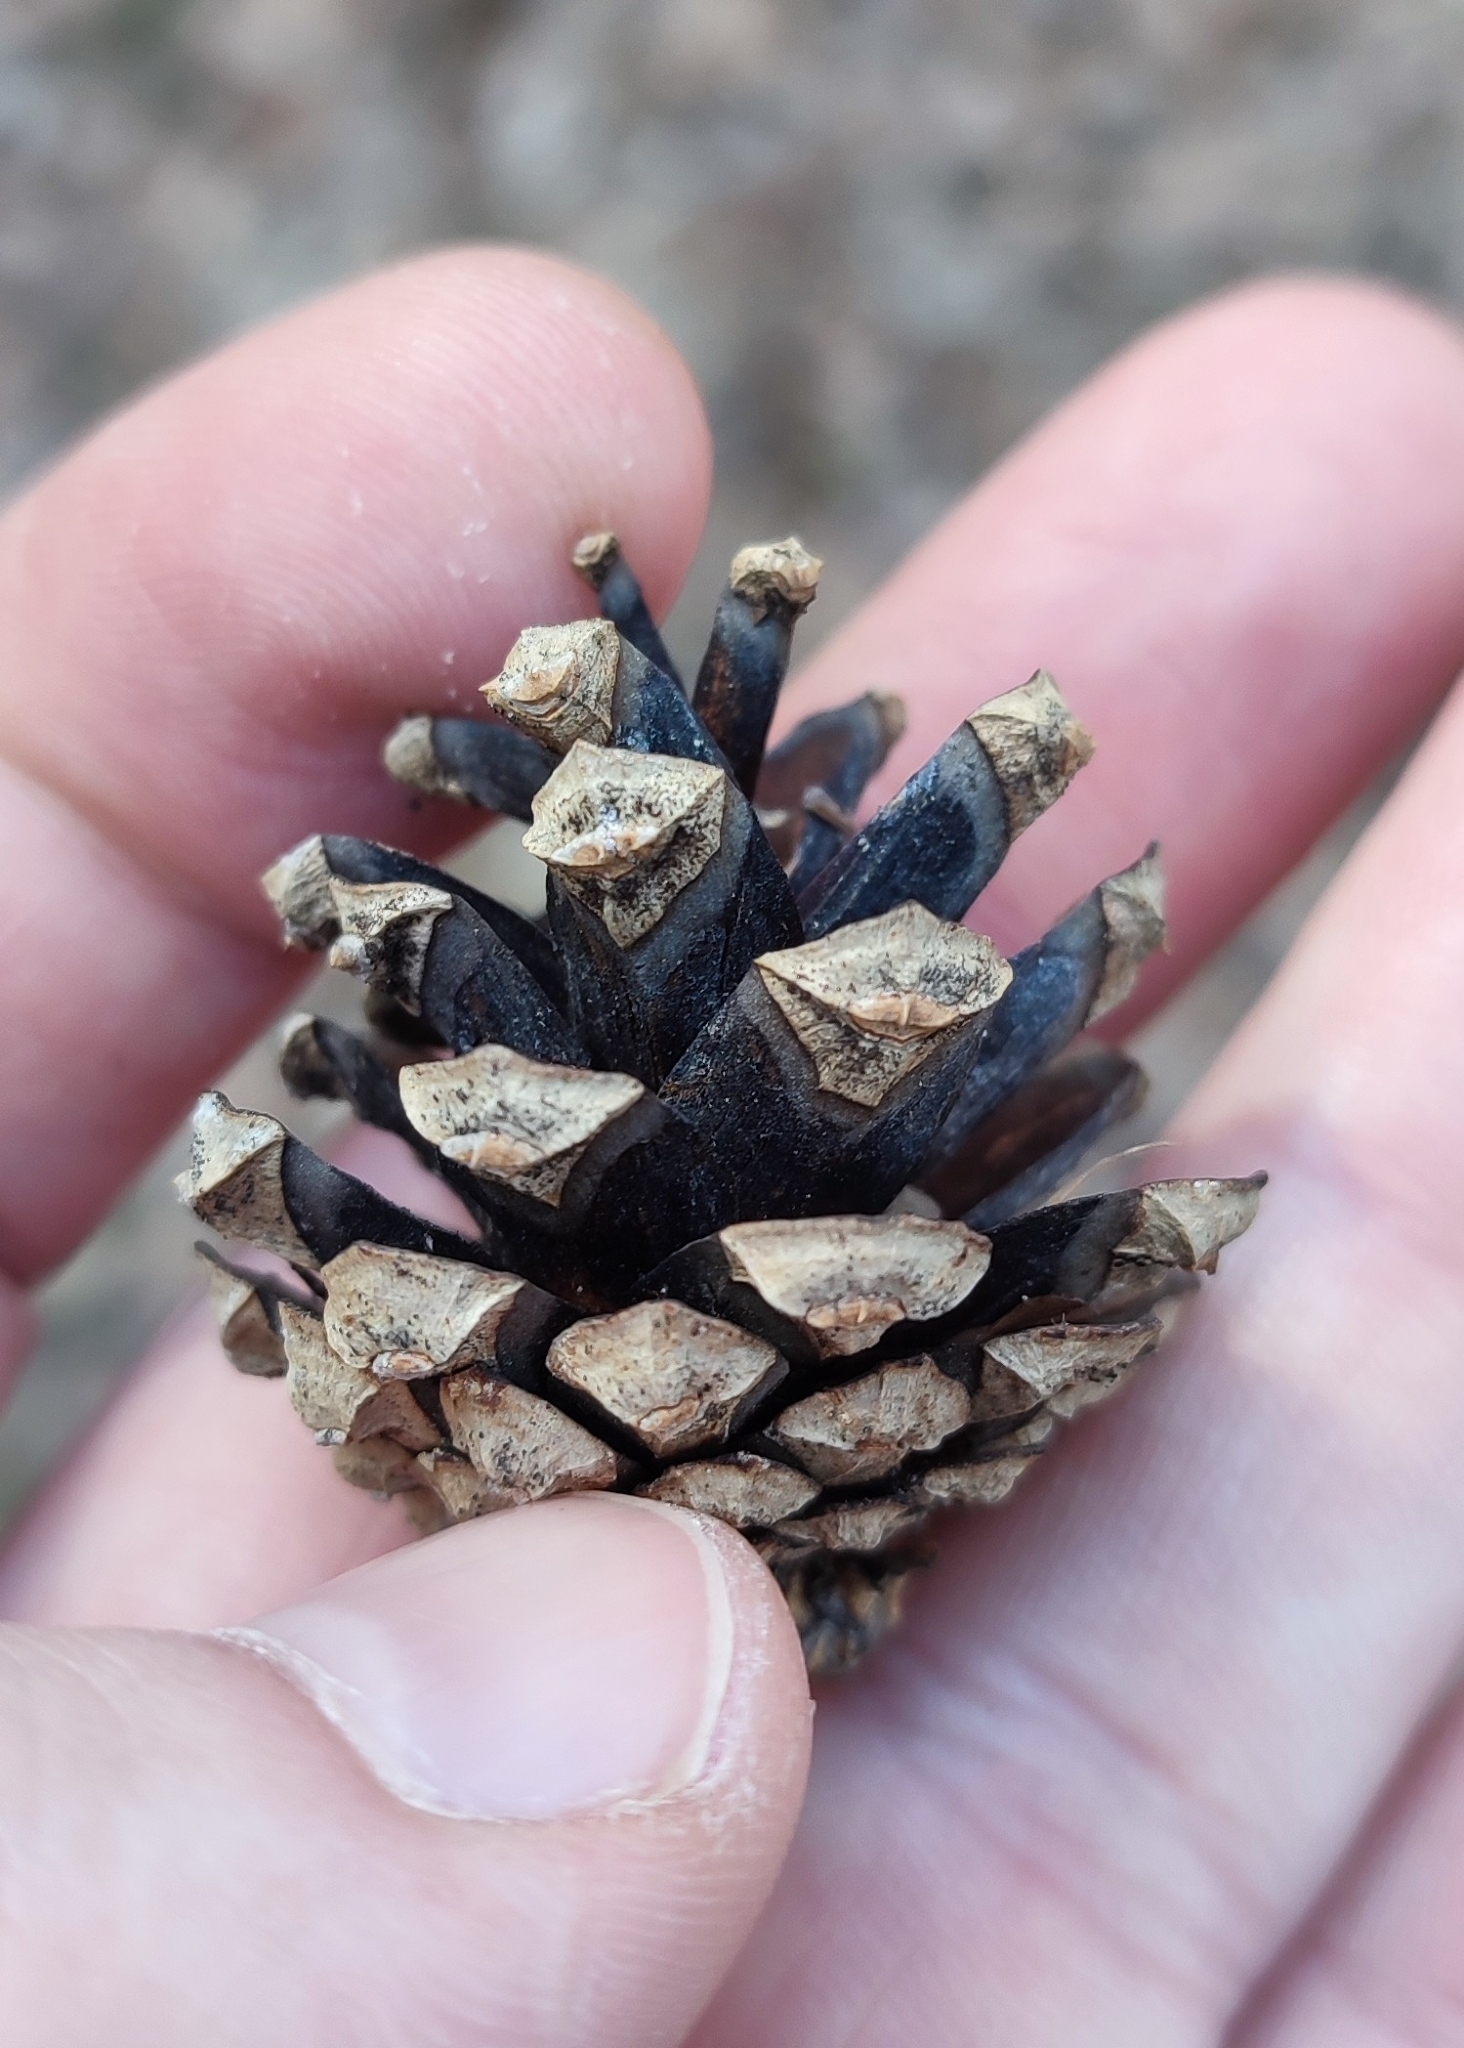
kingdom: Plantae
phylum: Tracheophyta
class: Pinopsida
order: Pinales
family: Pinaceae
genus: Pinus
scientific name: Pinus sylvestris
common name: Scots pine
